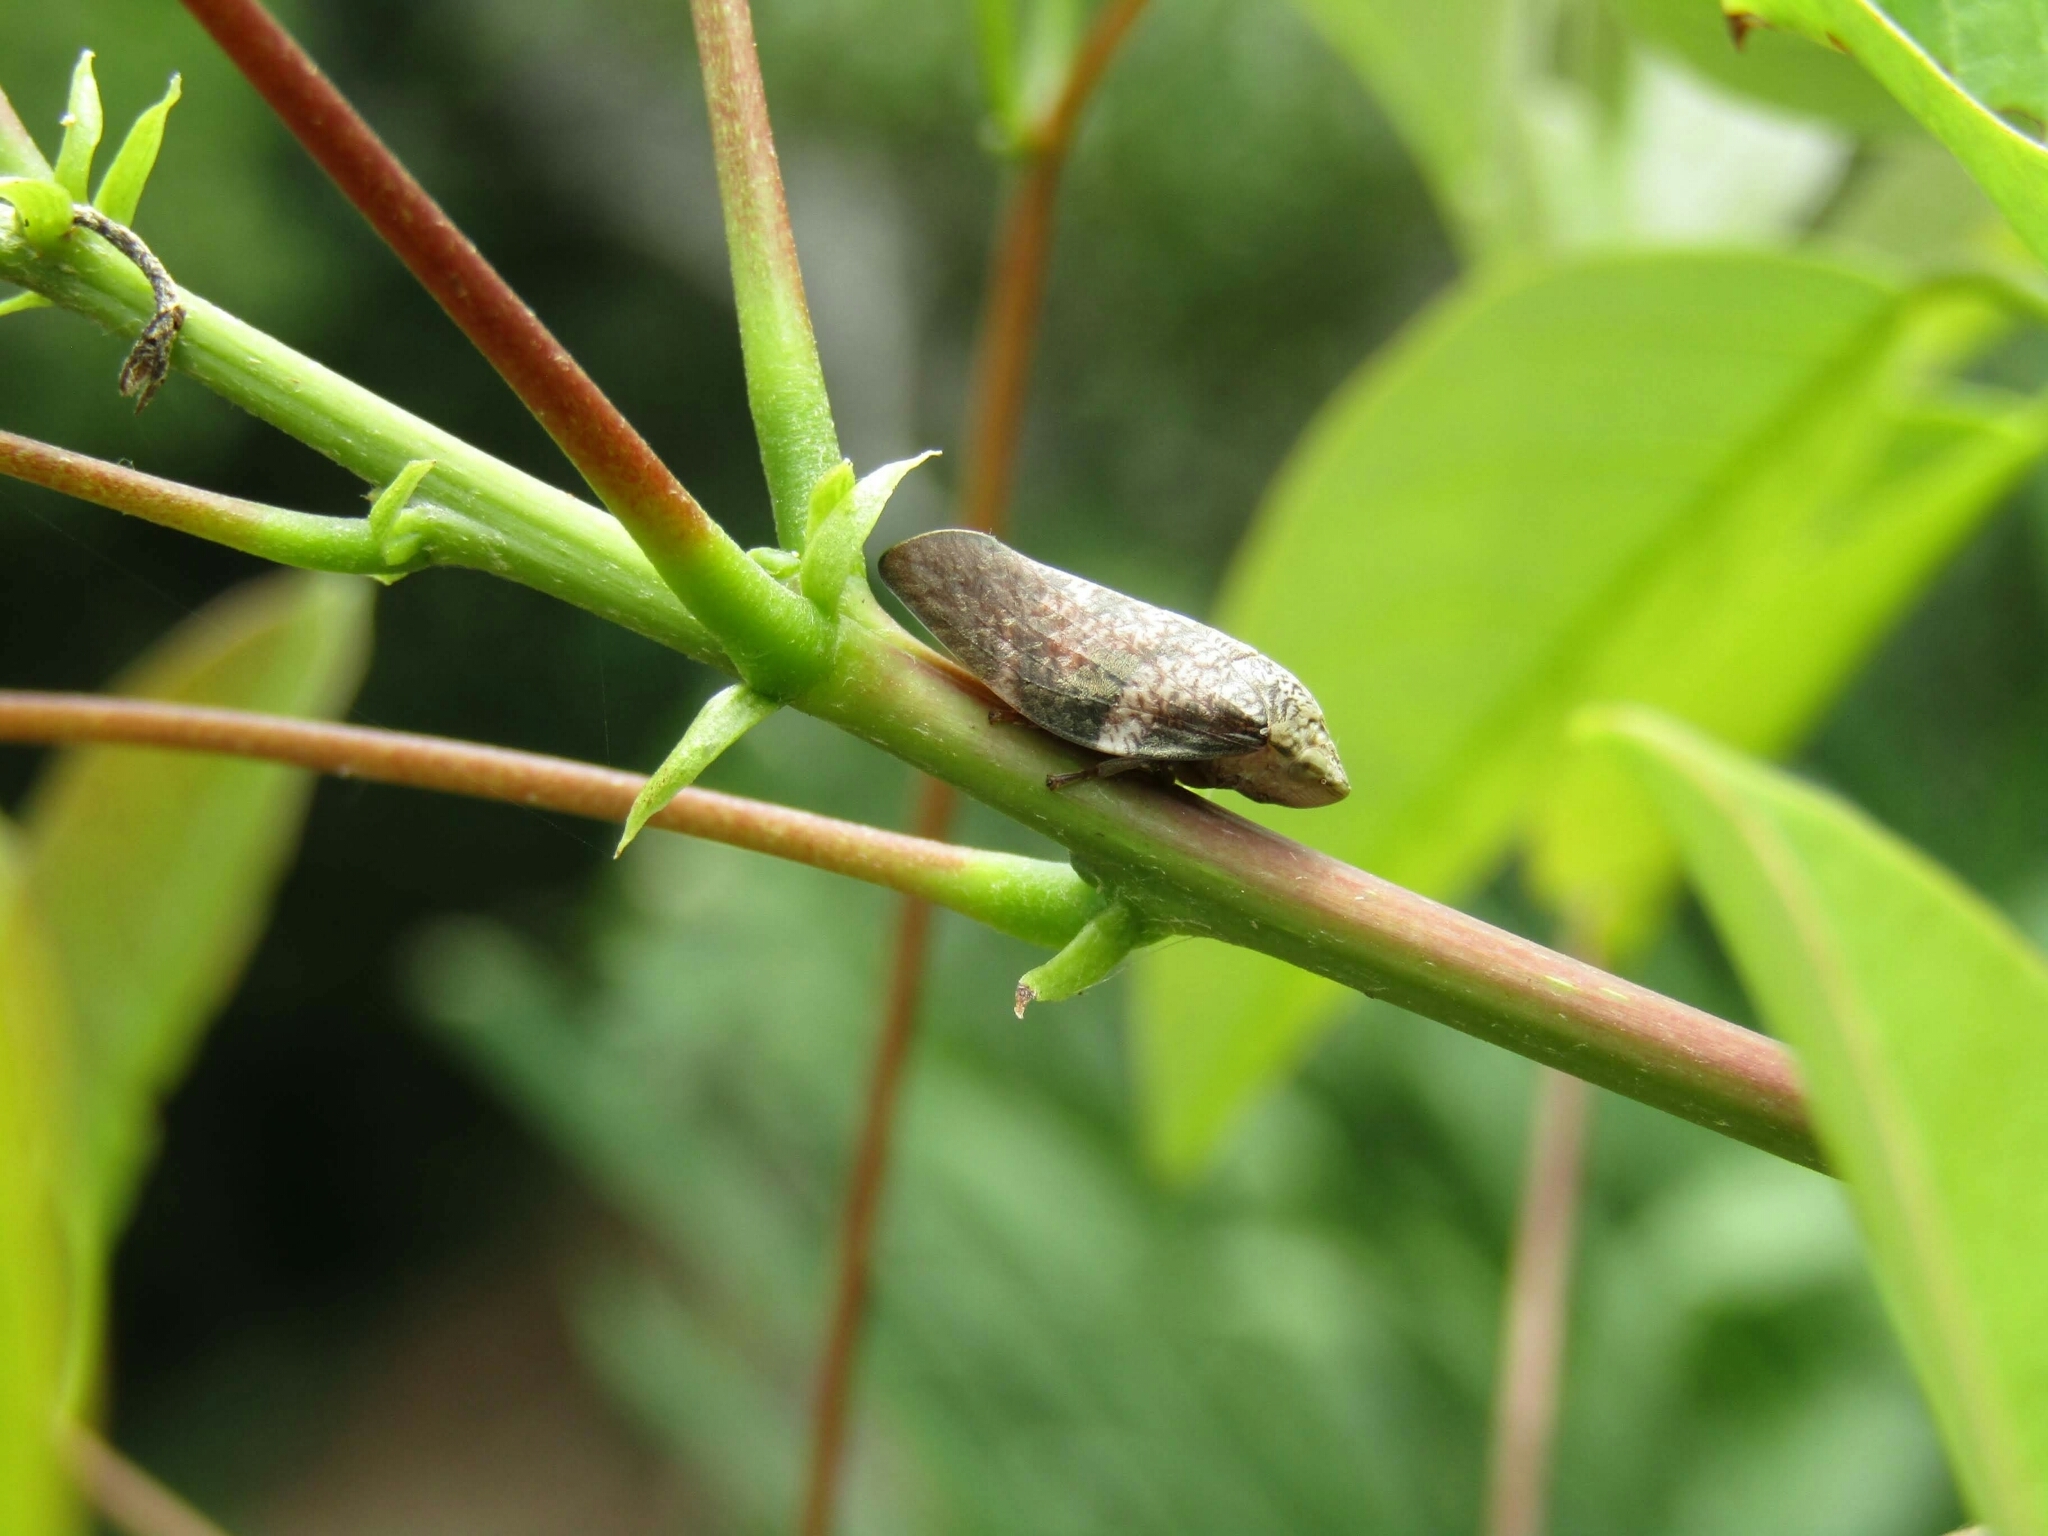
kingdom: Animalia
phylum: Arthropoda
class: Insecta
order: Hemiptera
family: Aphrophoridae
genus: Cephisus
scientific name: Cephisus siccifolius
